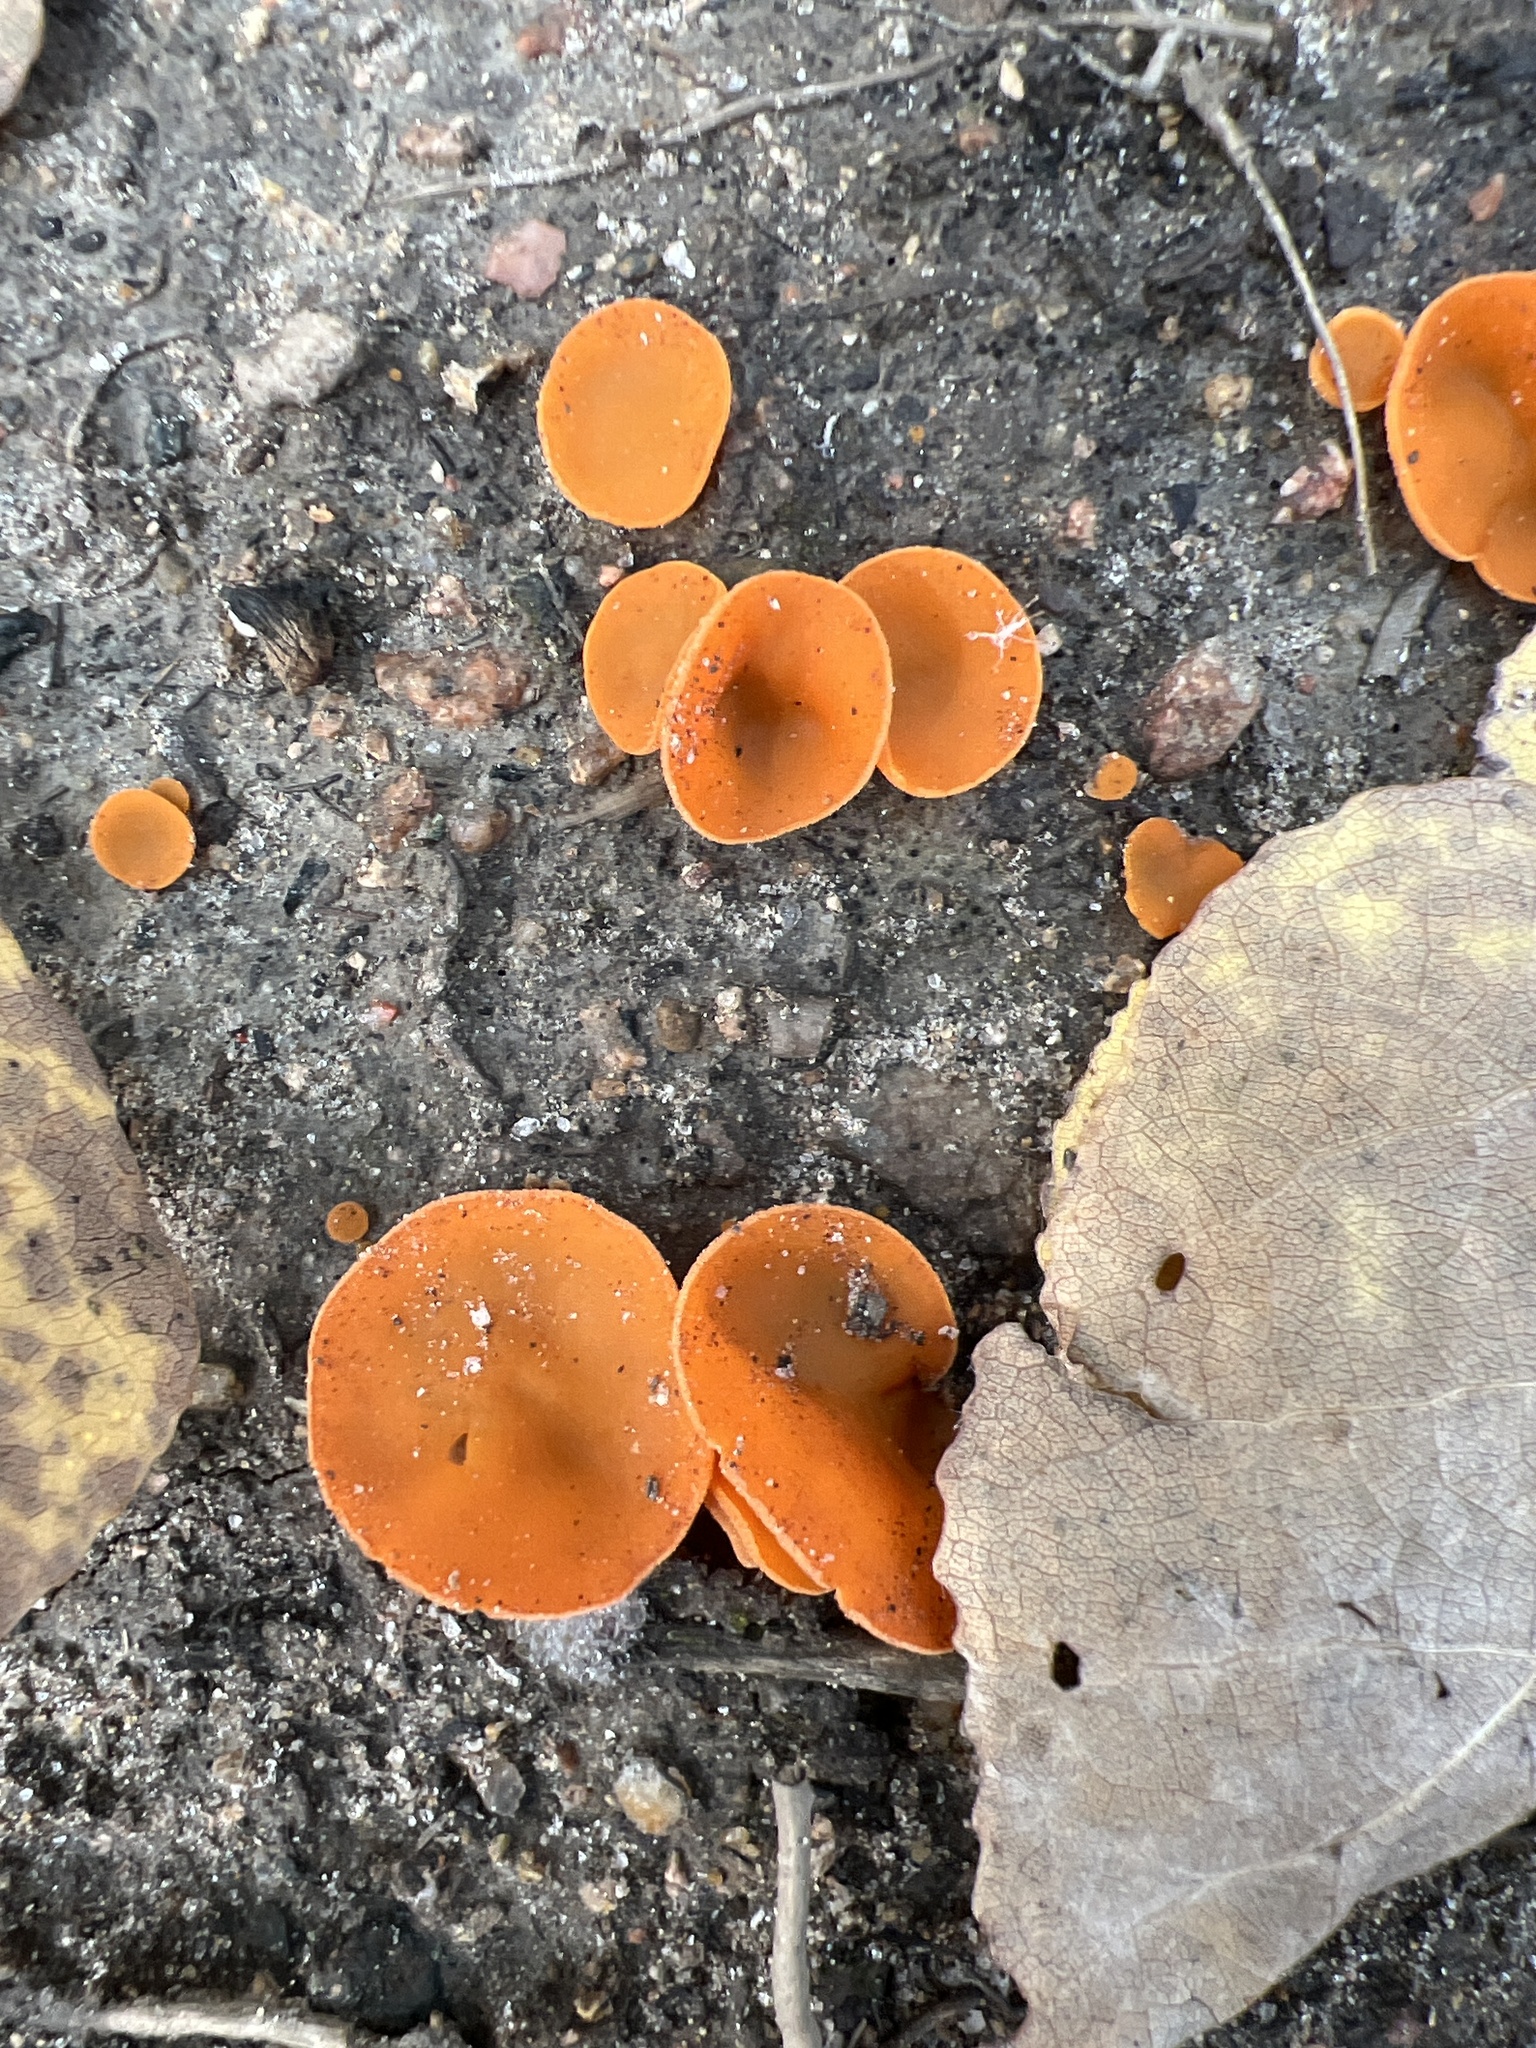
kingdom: Fungi
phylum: Ascomycota
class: Pezizomycetes
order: Pezizales
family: Pyronemataceae
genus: Aleuria
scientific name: Aleuria aurantia
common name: Orange peel fungus
